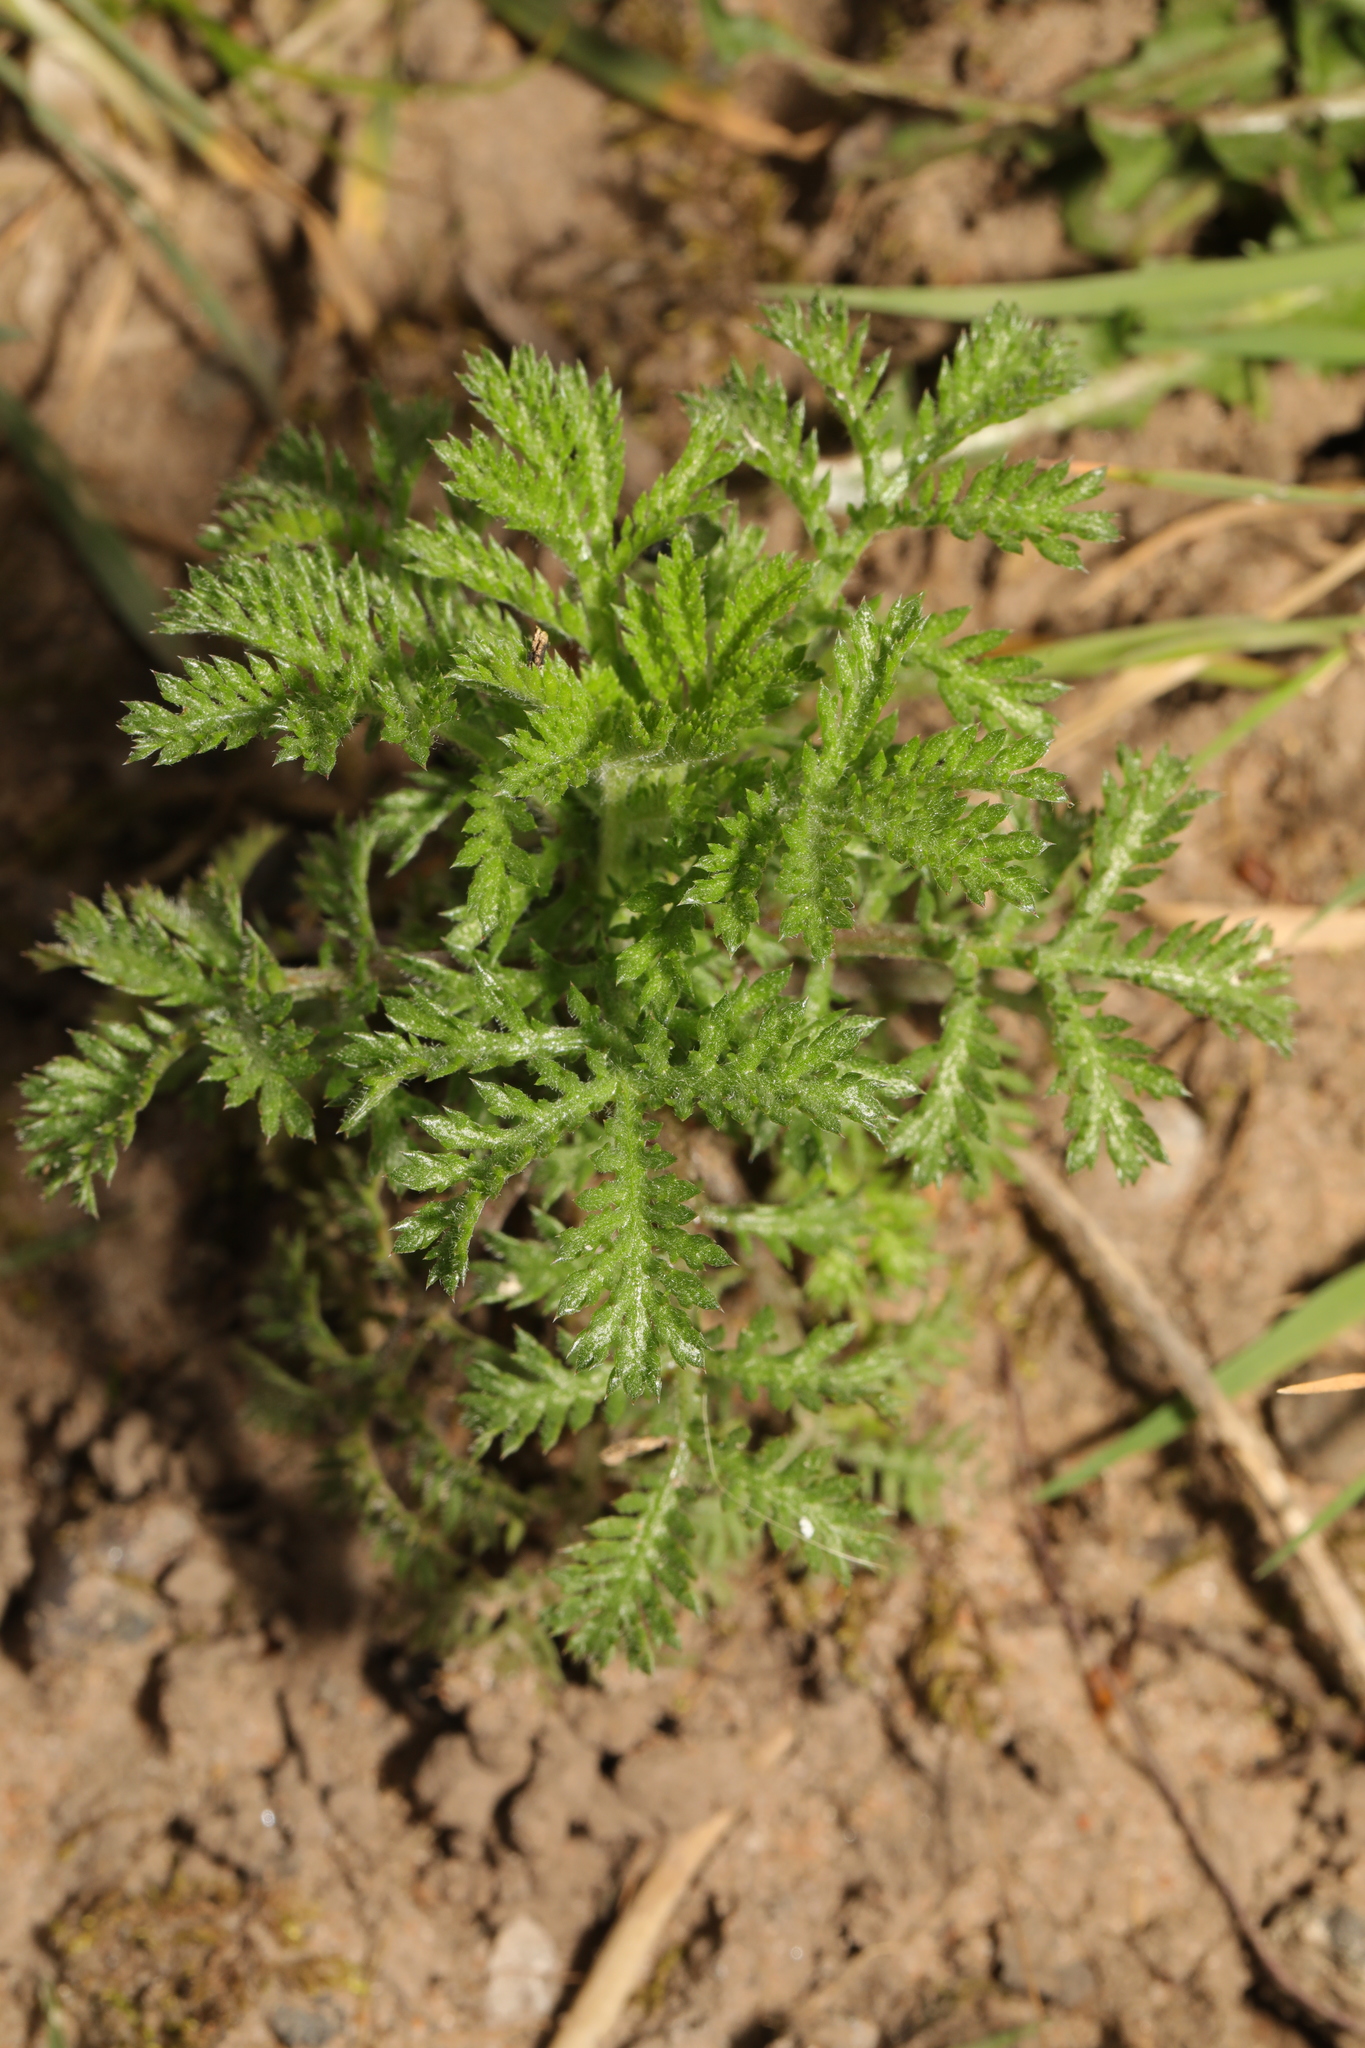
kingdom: Plantae
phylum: Tracheophyta
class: Magnoliopsida
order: Asterales
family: Asteraceae
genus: Cota
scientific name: Cota austriaca
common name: Austrian chamomile
